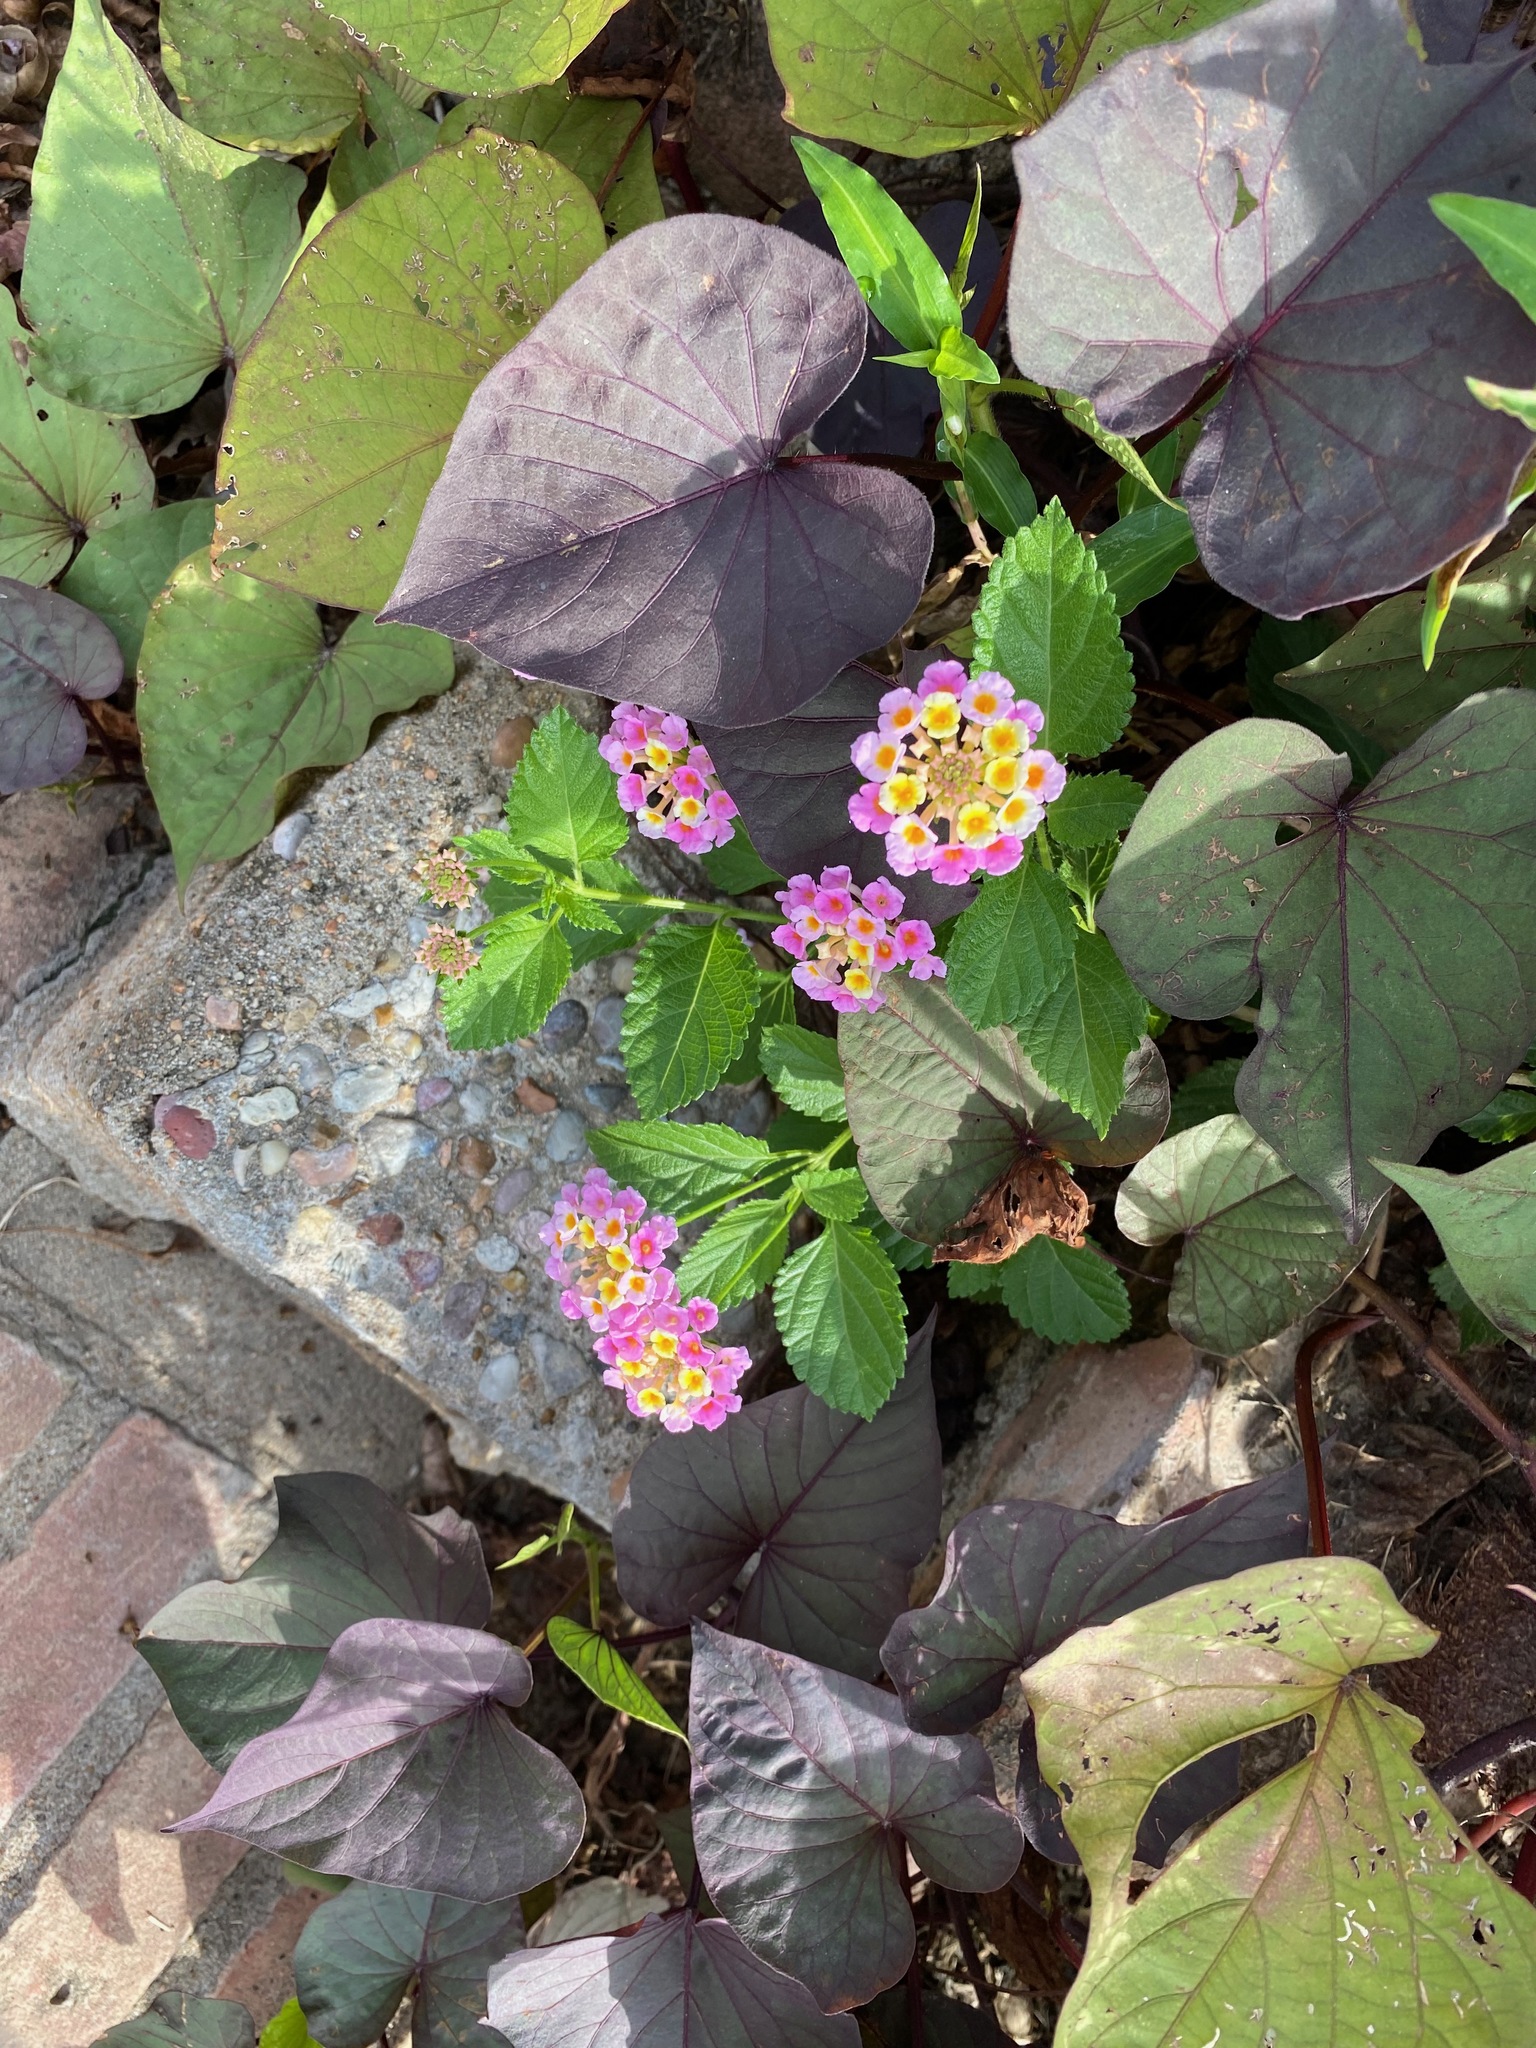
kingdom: Plantae
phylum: Tracheophyta
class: Magnoliopsida
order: Lamiales
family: Verbenaceae
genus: Lantana
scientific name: Lantana strigocamara
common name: Lantana
